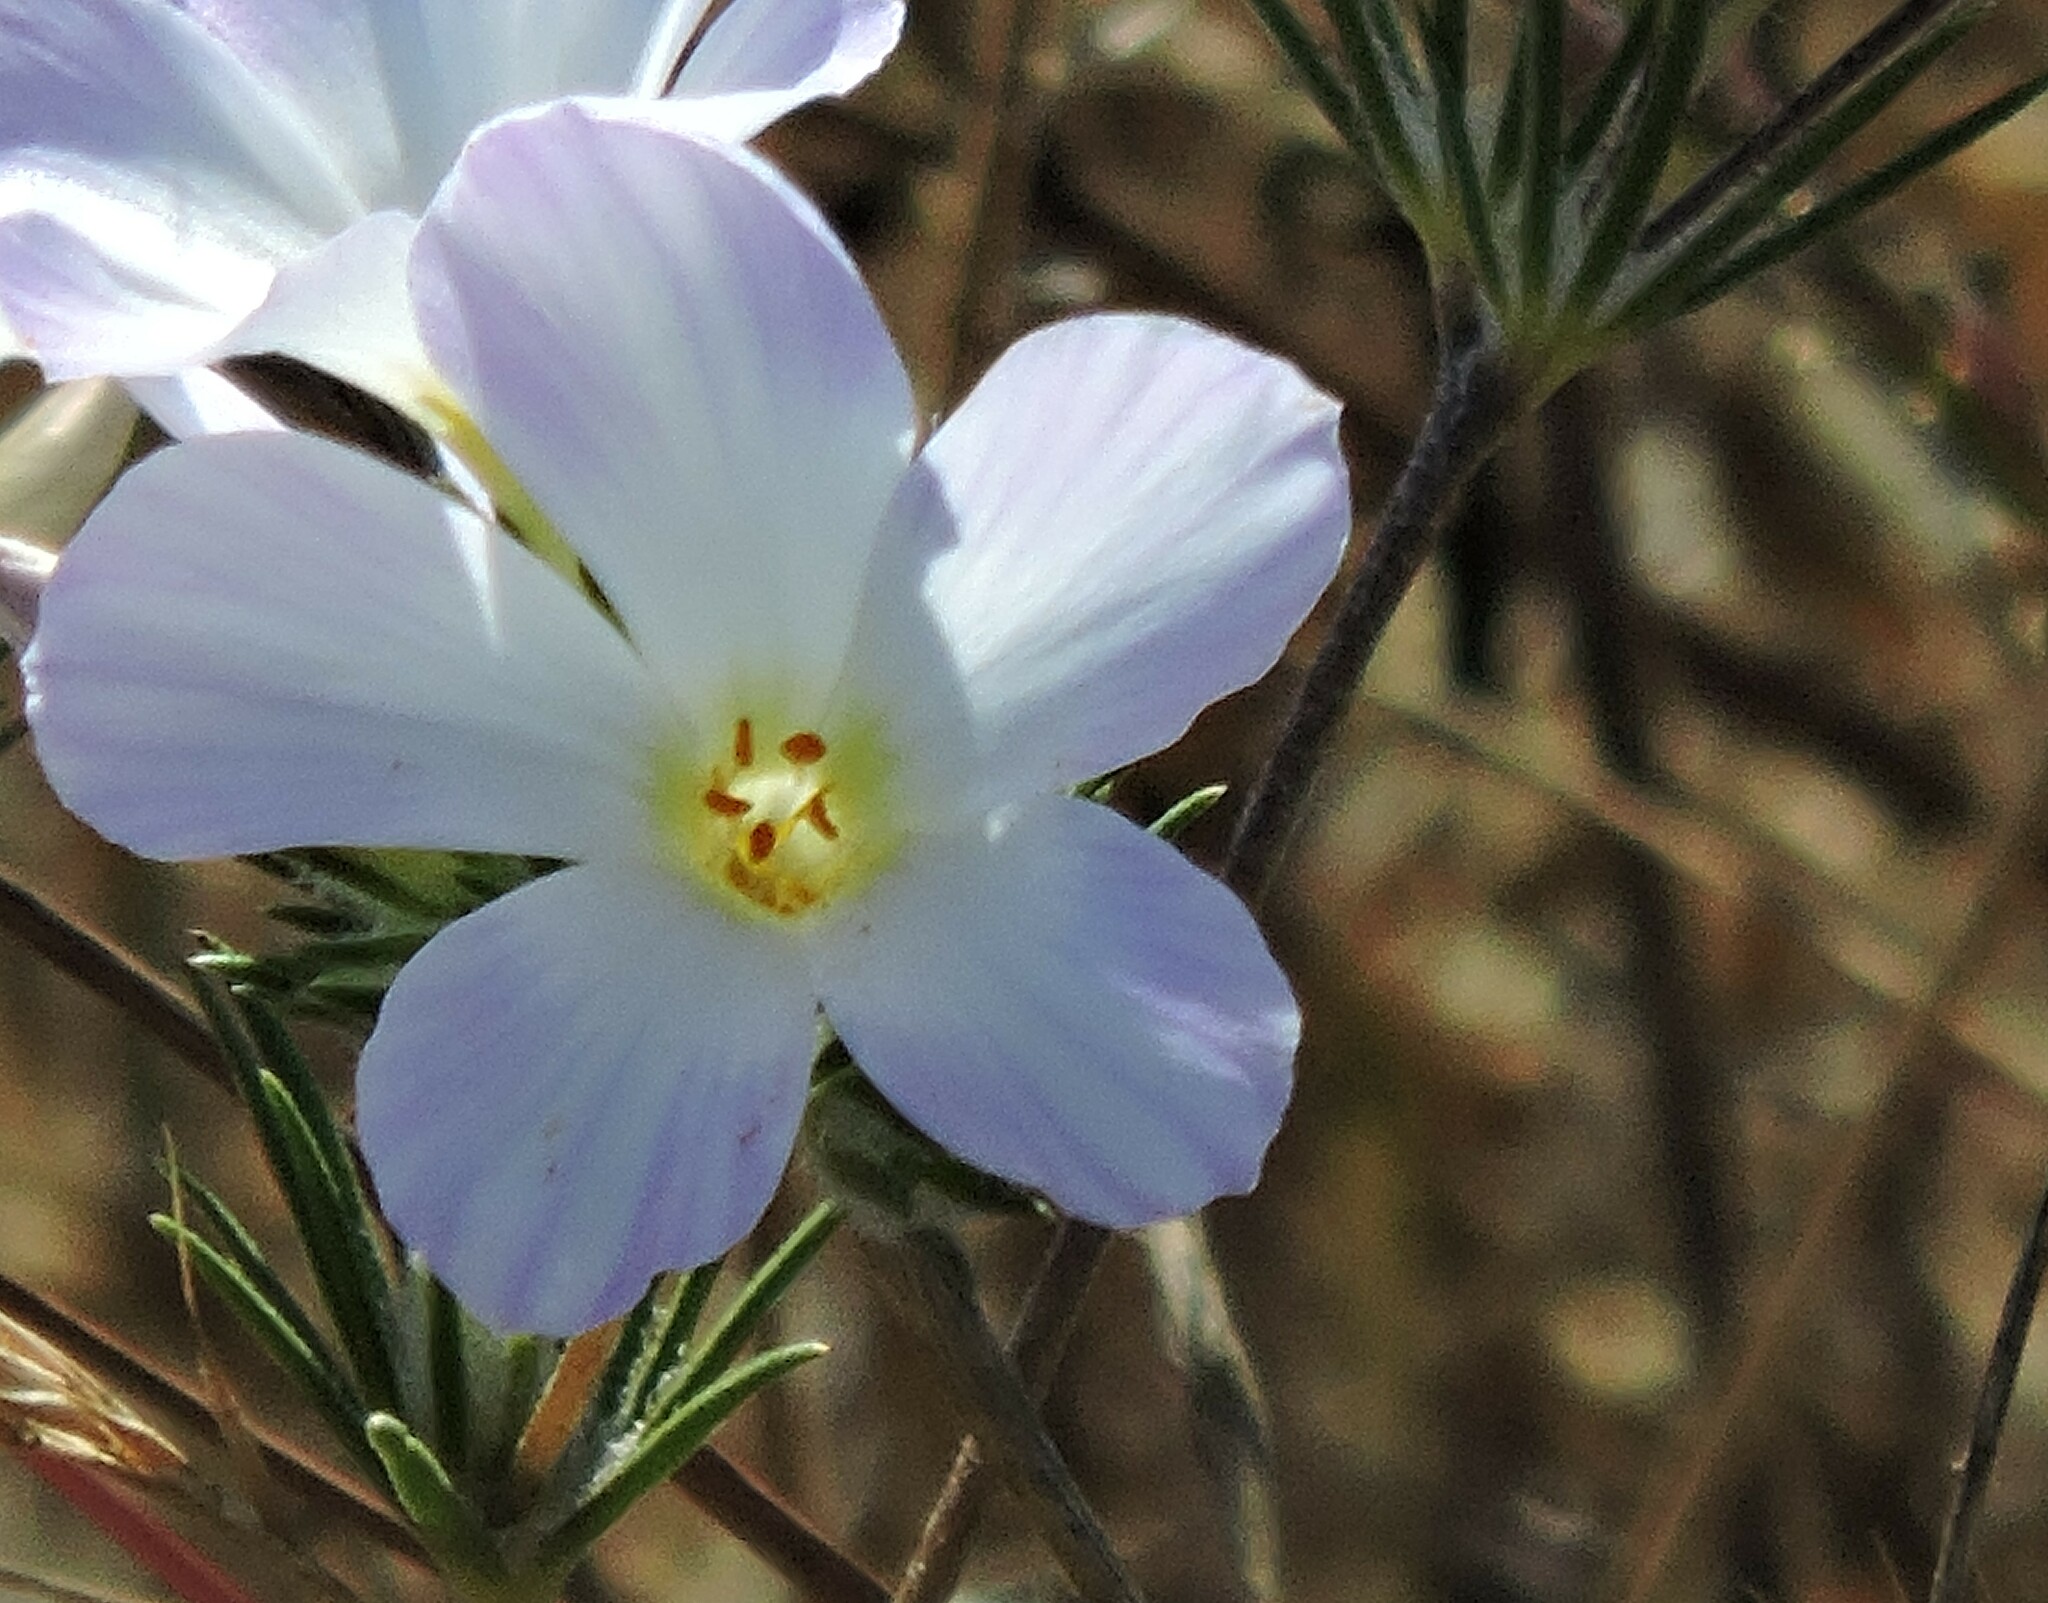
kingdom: Plantae
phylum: Tracheophyta
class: Magnoliopsida
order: Ericales
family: Polemoniaceae
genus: Leptosiphon
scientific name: Leptosiphon grandiflorus
